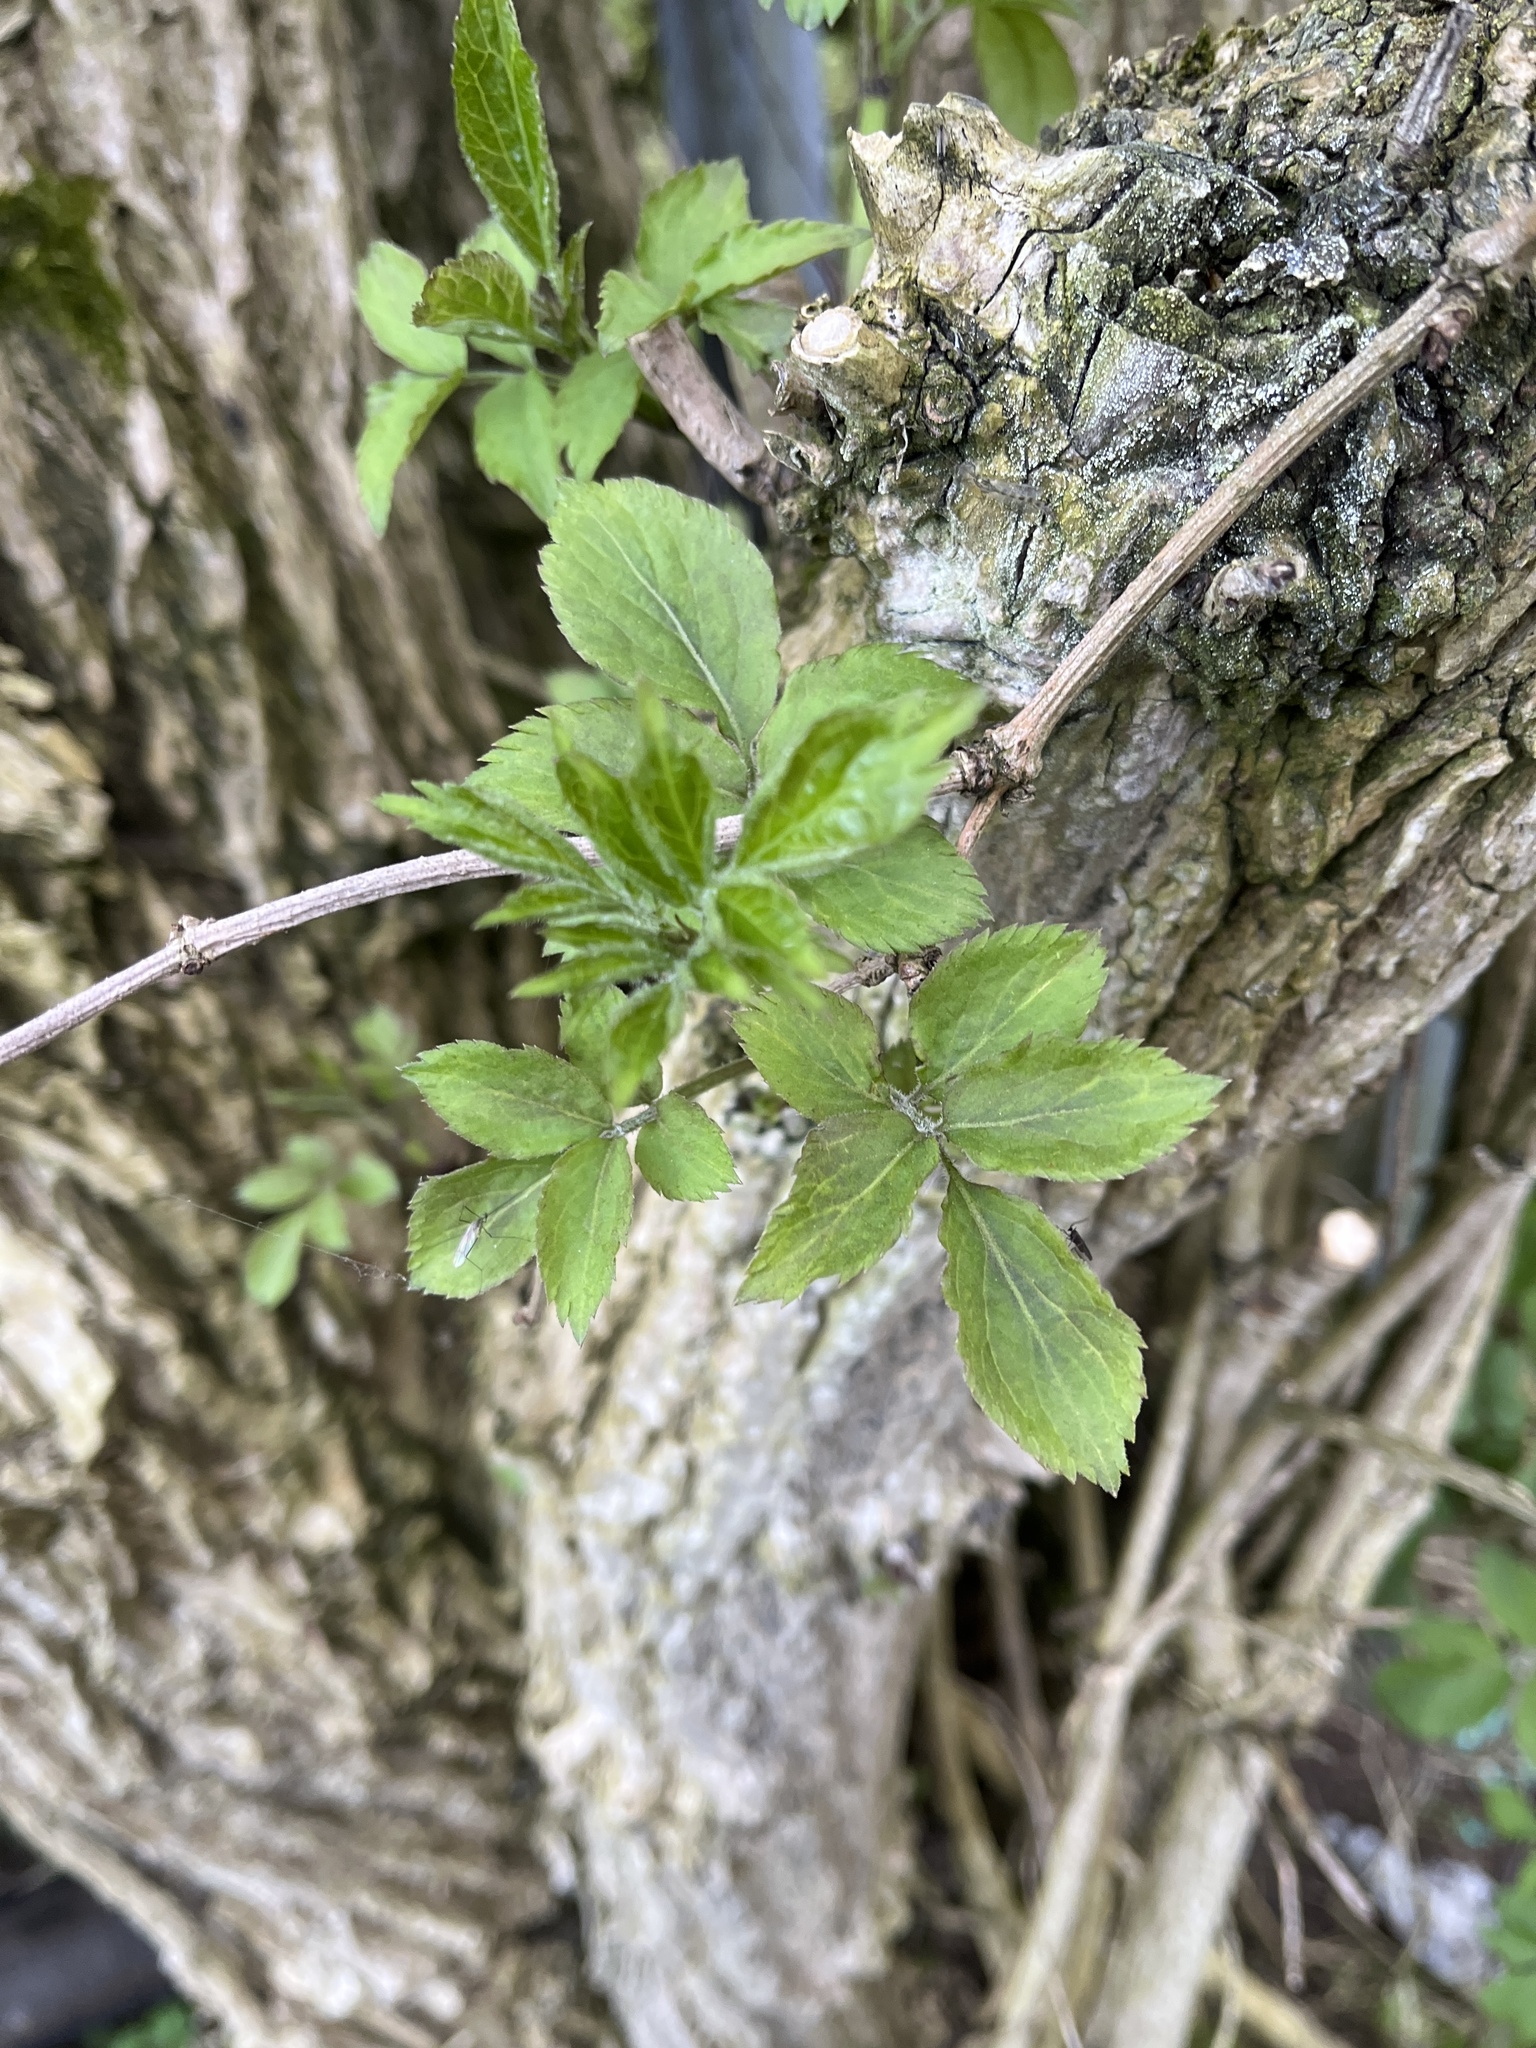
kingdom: Plantae
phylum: Tracheophyta
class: Magnoliopsida
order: Dipsacales
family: Viburnaceae
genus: Sambucus
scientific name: Sambucus nigra
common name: Elder
